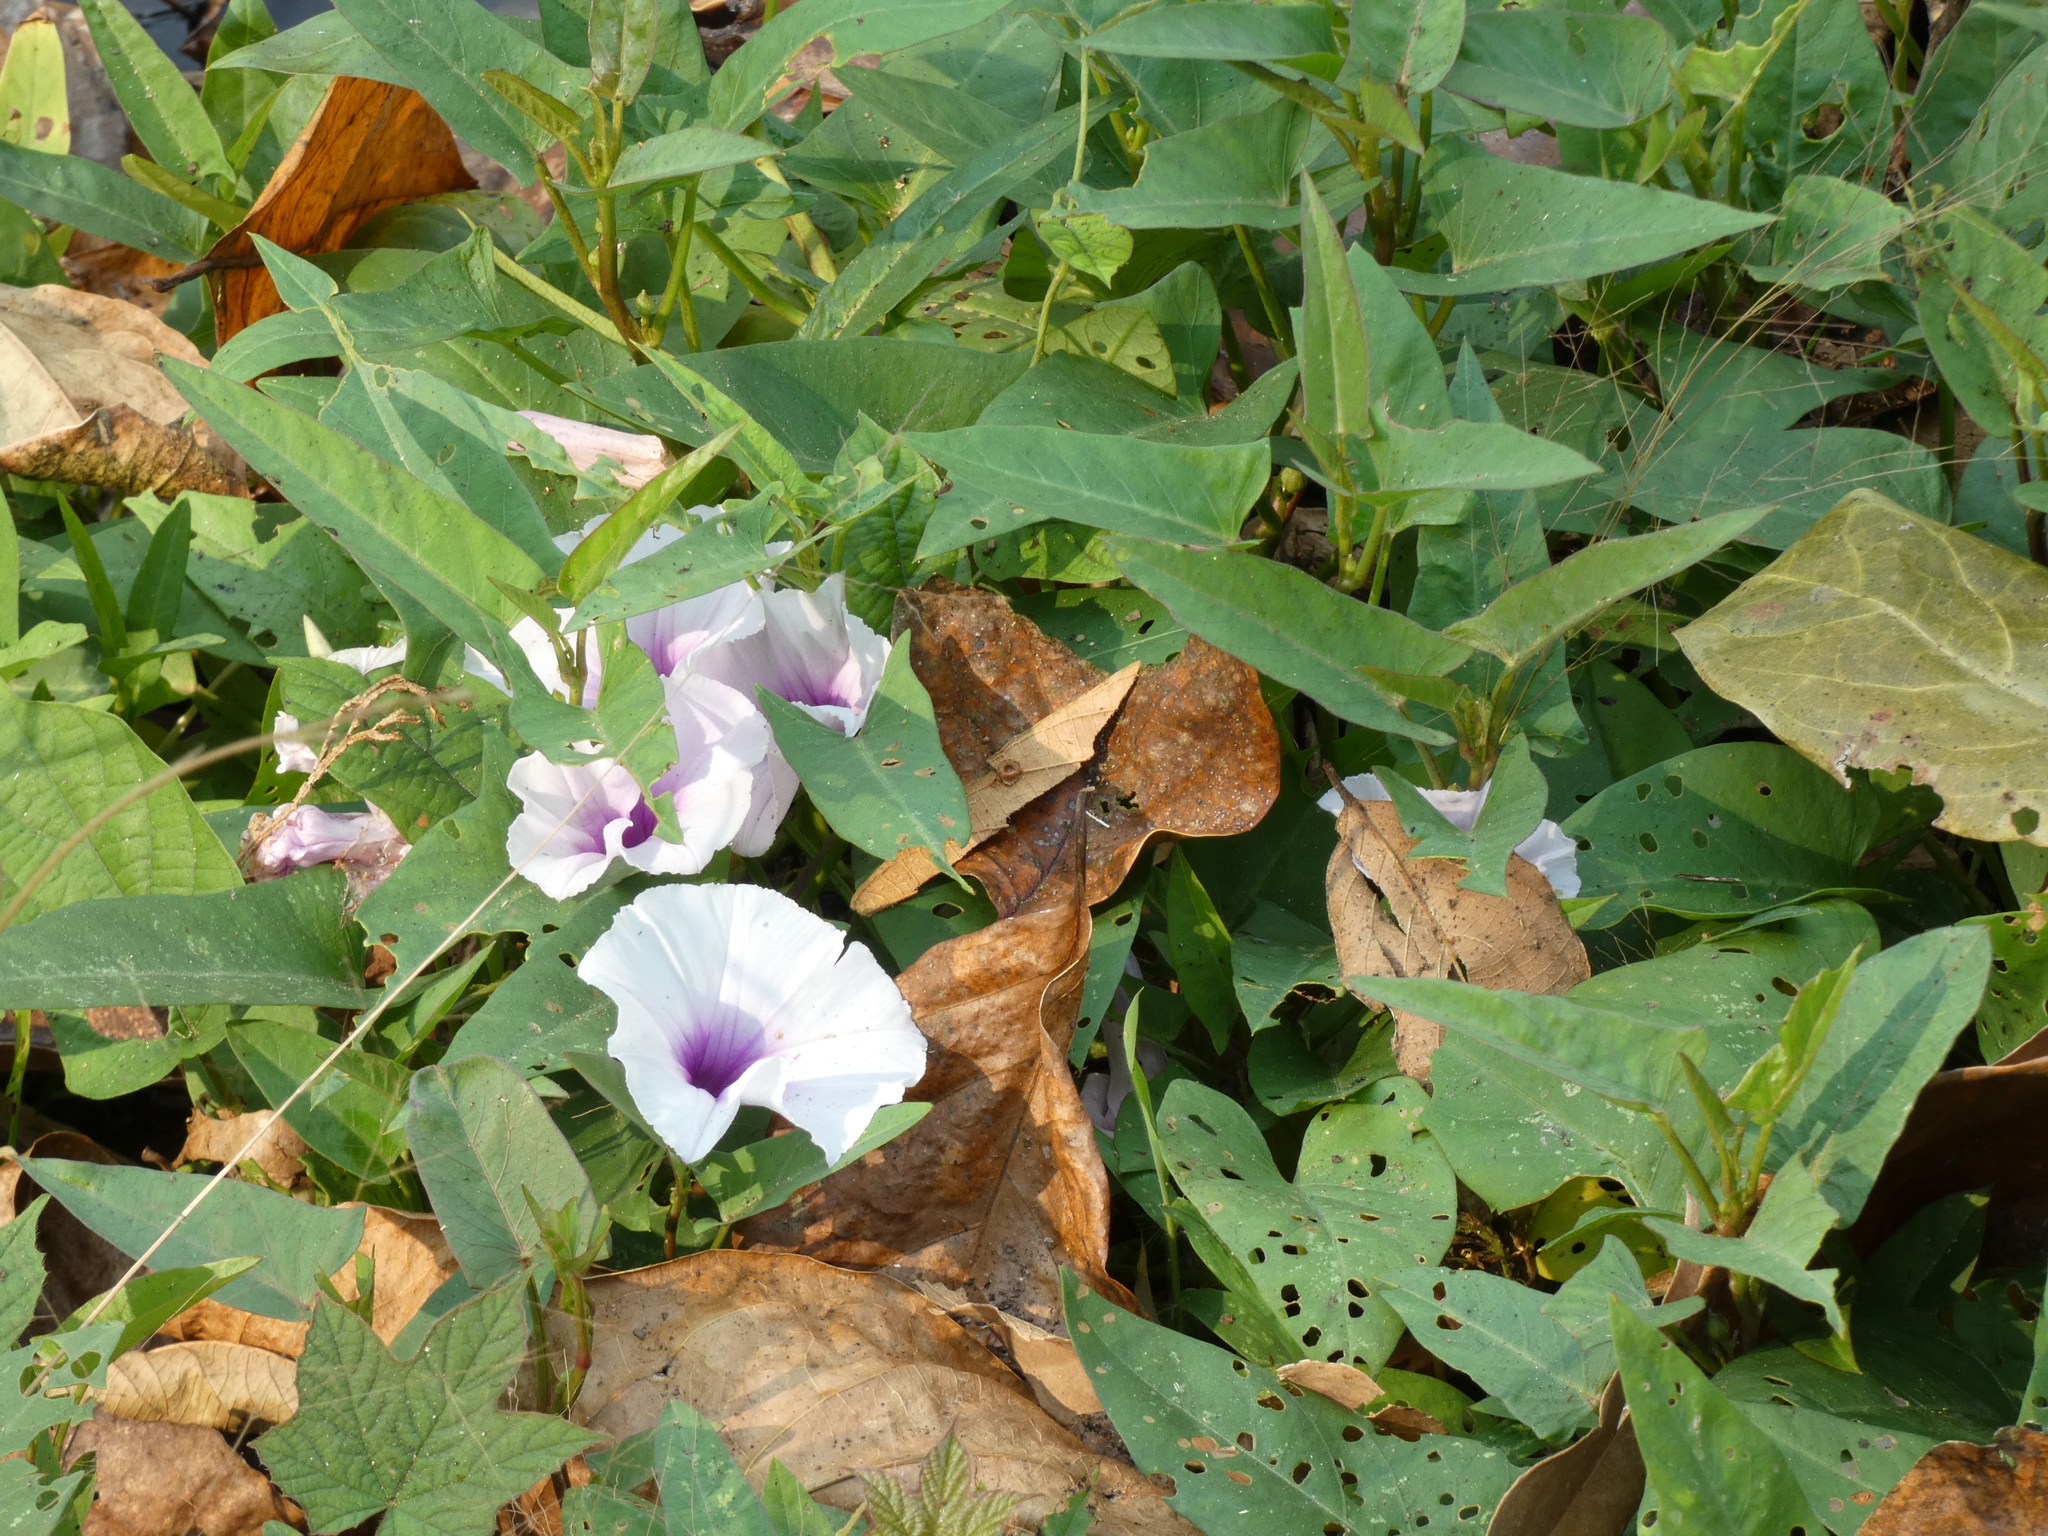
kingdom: Plantae
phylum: Tracheophyta
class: Magnoliopsida
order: Solanales
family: Convolvulaceae
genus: Ipomoea
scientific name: Ipomoea aquatica
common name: Swamp morning-glory
